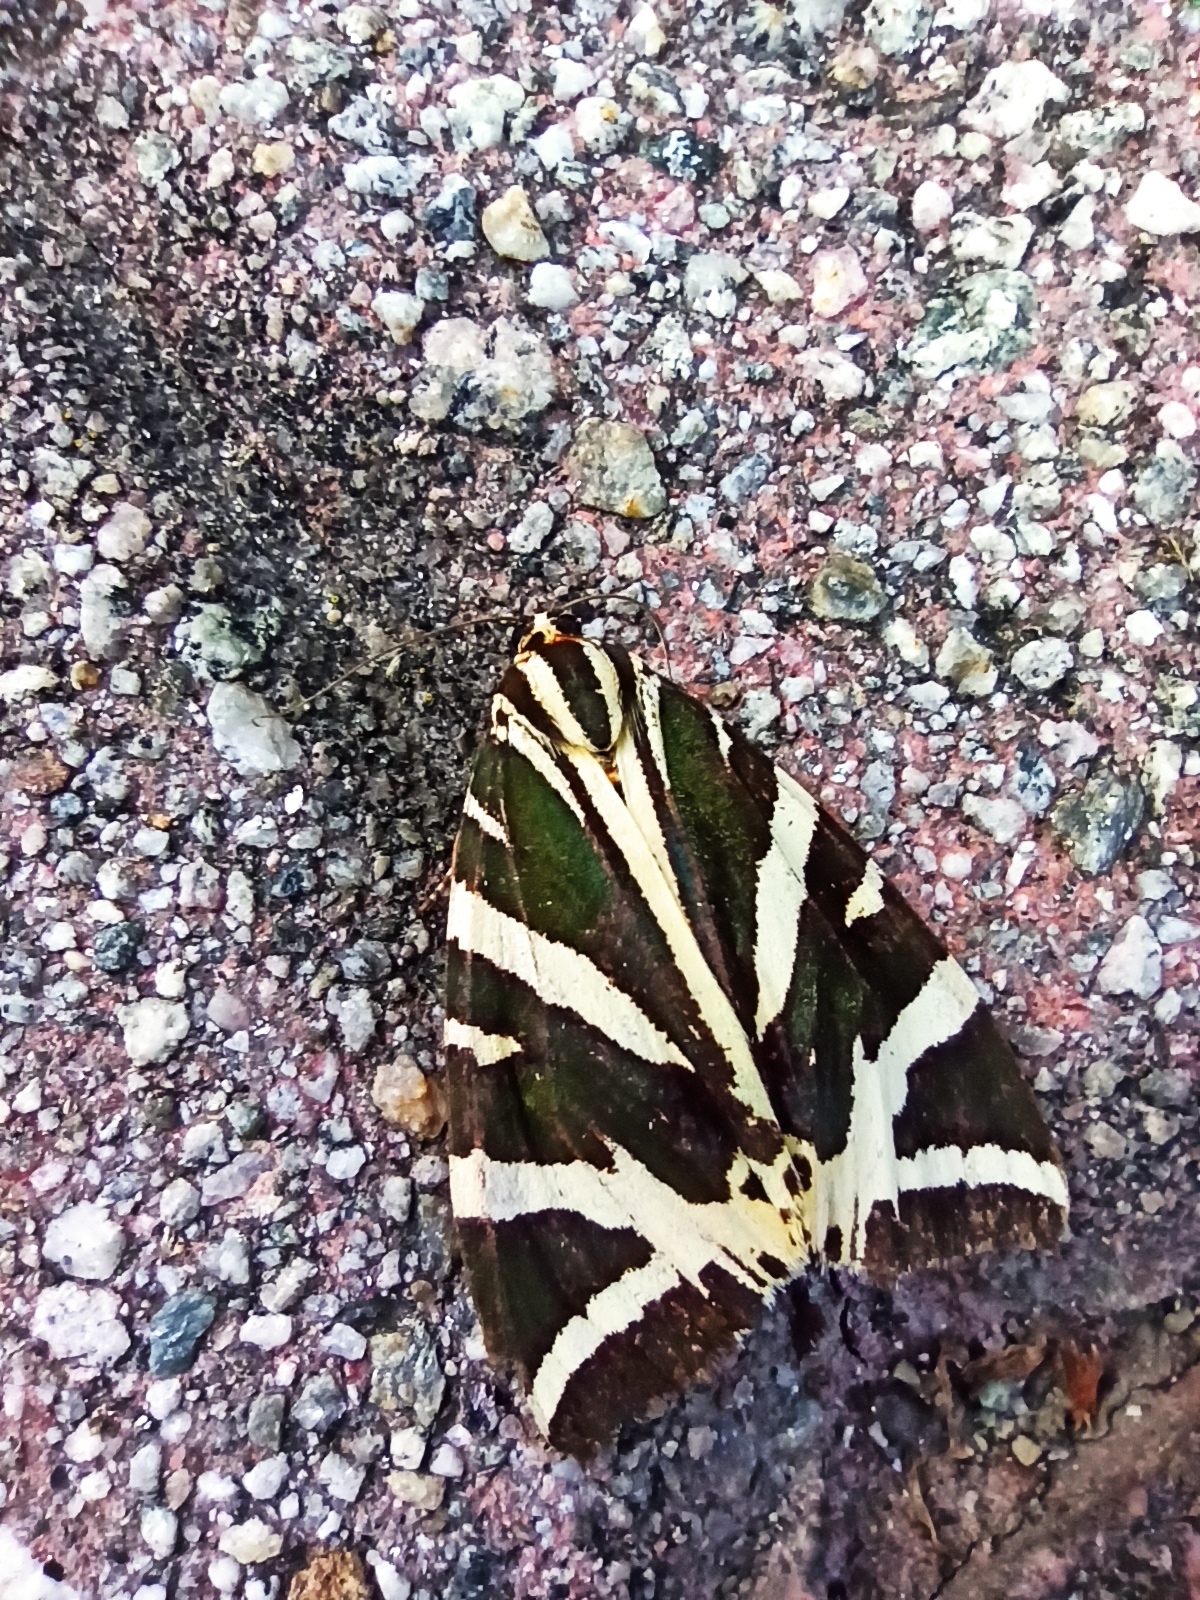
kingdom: Animalia
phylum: Arthropoda
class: Insecta
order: Lepidoptera
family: Erebidae
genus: Euplagia
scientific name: Euplagia quadripunctaria
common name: Jersey tiger
